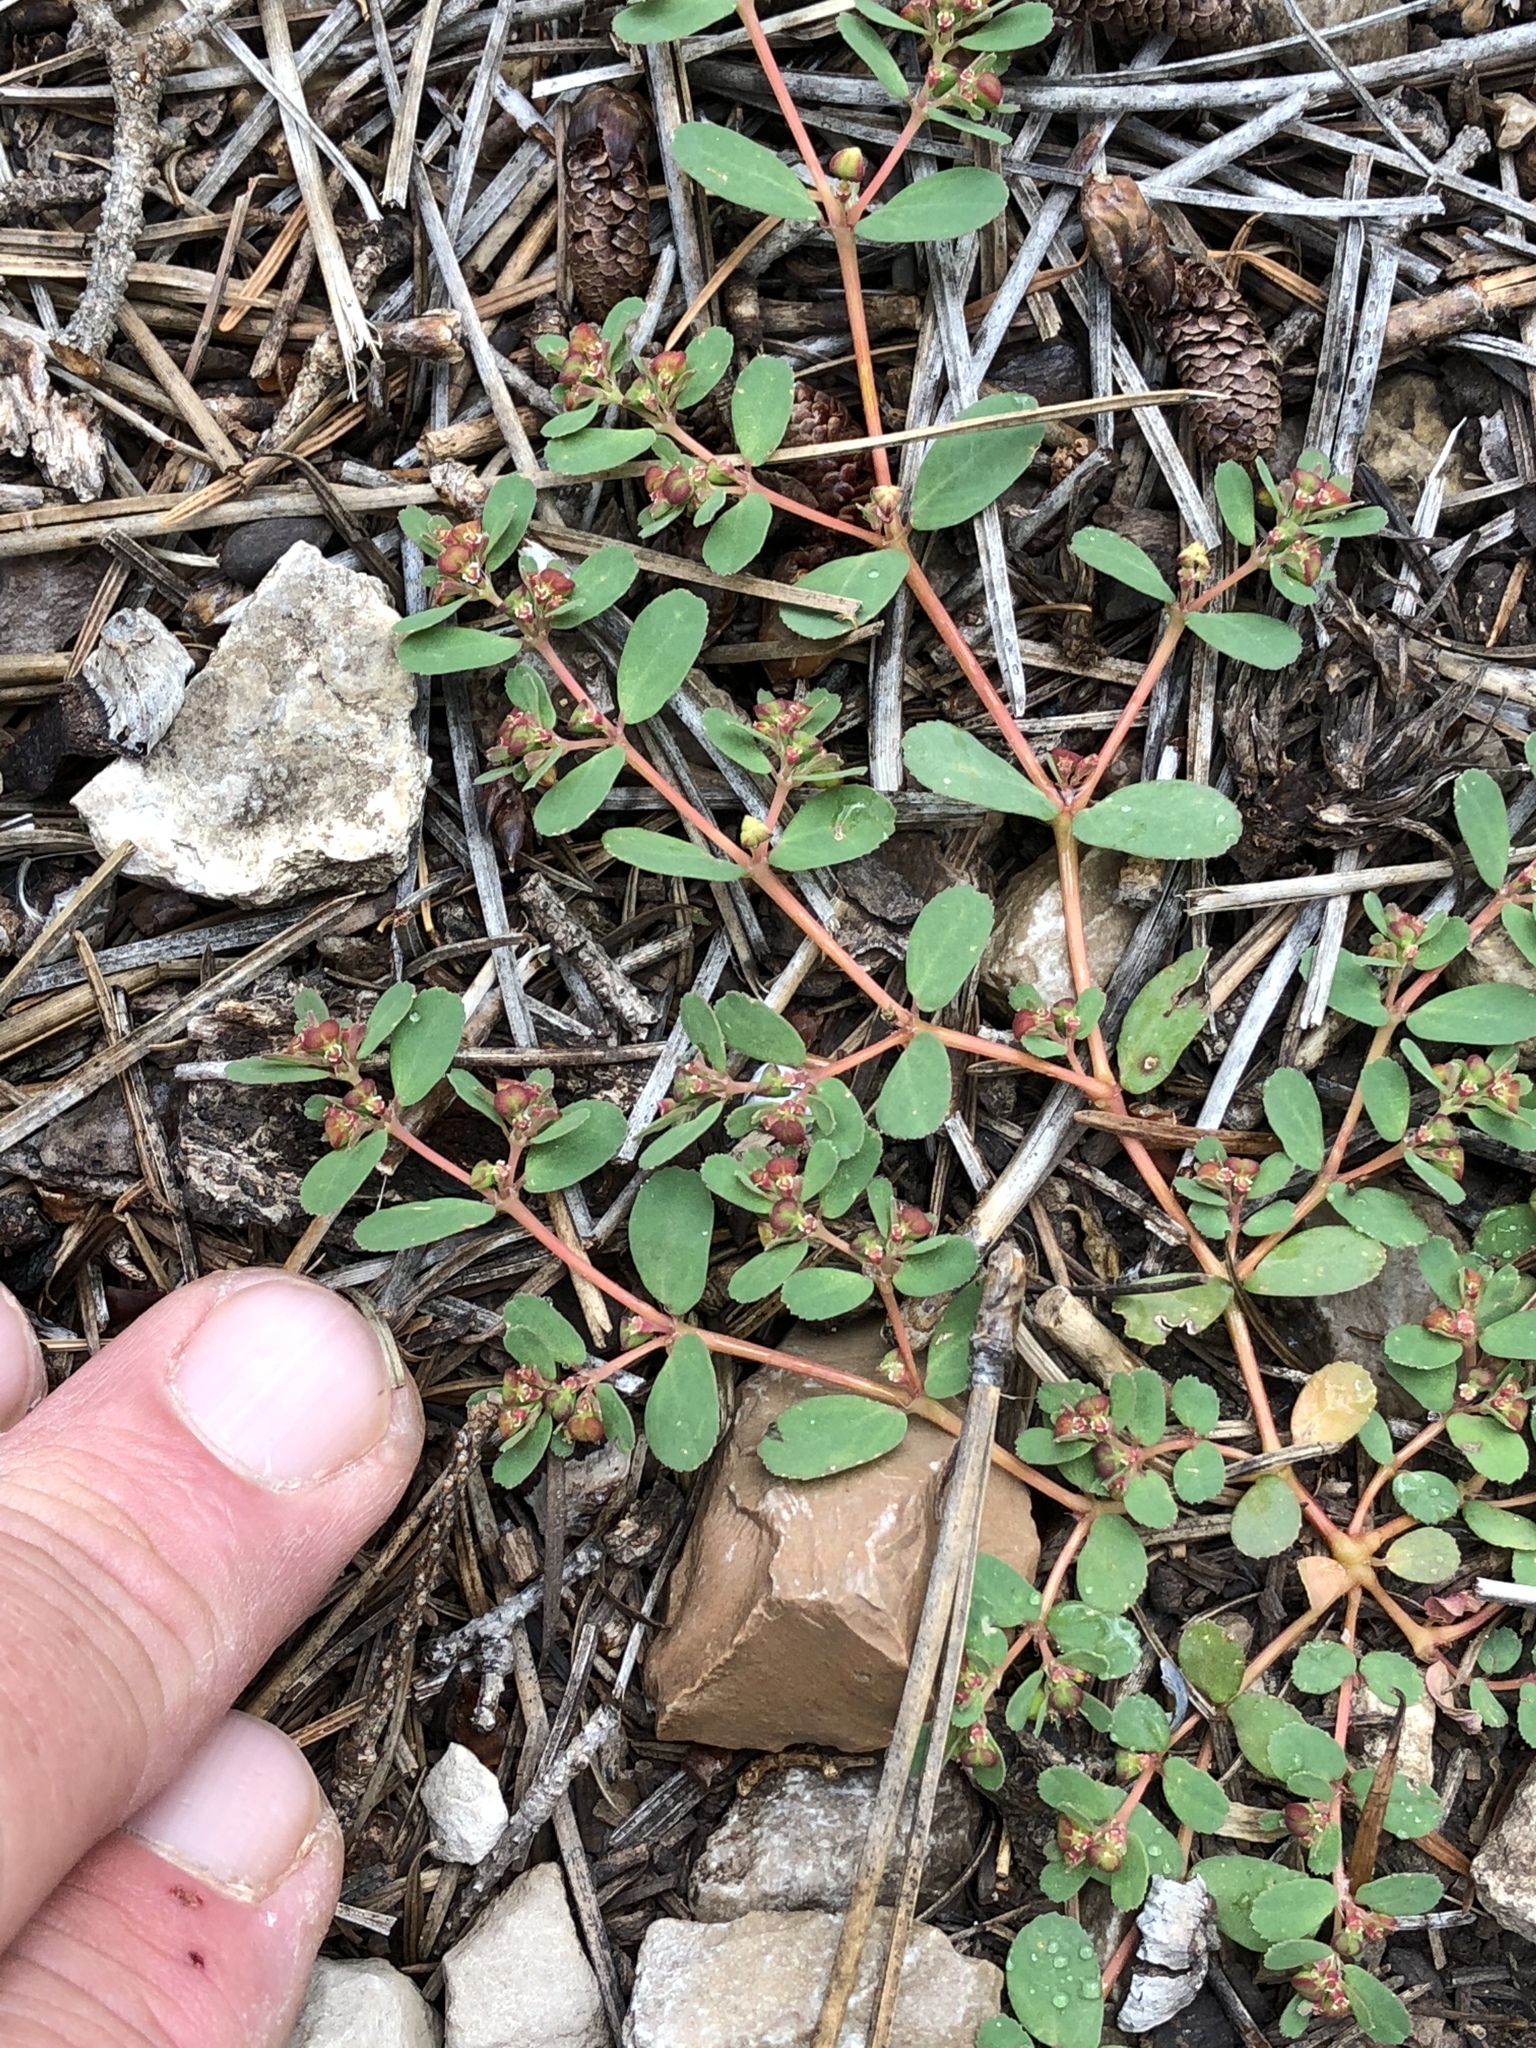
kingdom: Plantae
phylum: Tracheophyta
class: Magnoliopsida
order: Malpighiales
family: Euphorbiaceae
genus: Euphorbia
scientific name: Euphorbia serpillifolia
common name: Thyme-leaf spurge
